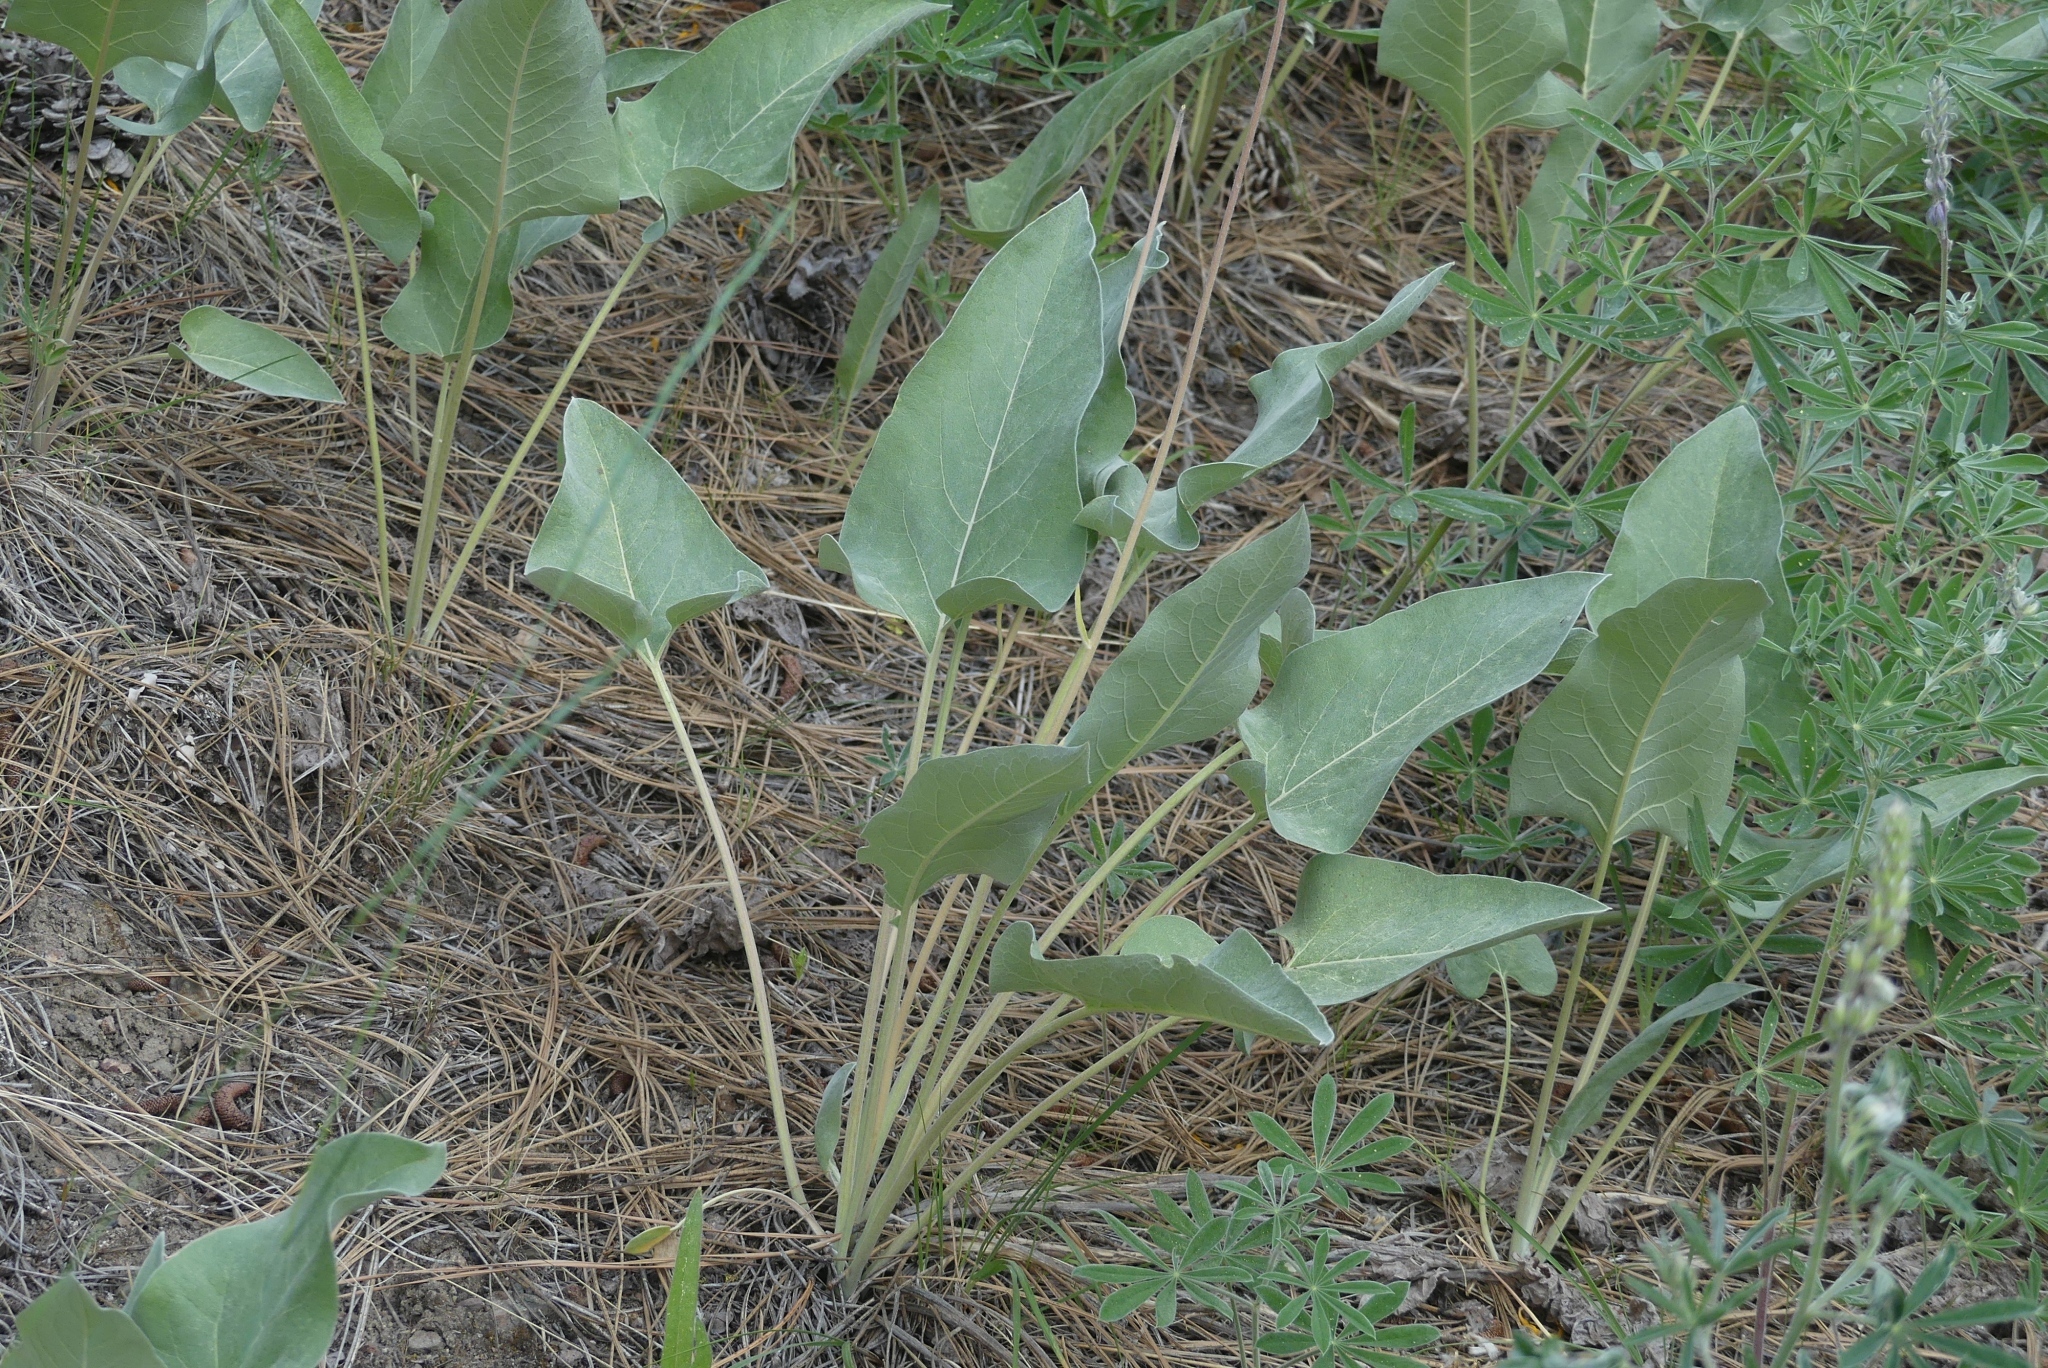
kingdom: Plantae
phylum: Tracheophyta
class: Magnoliopsida
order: Asterales
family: Asteraceae
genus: Wyethia
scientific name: Wyethia sagittata
